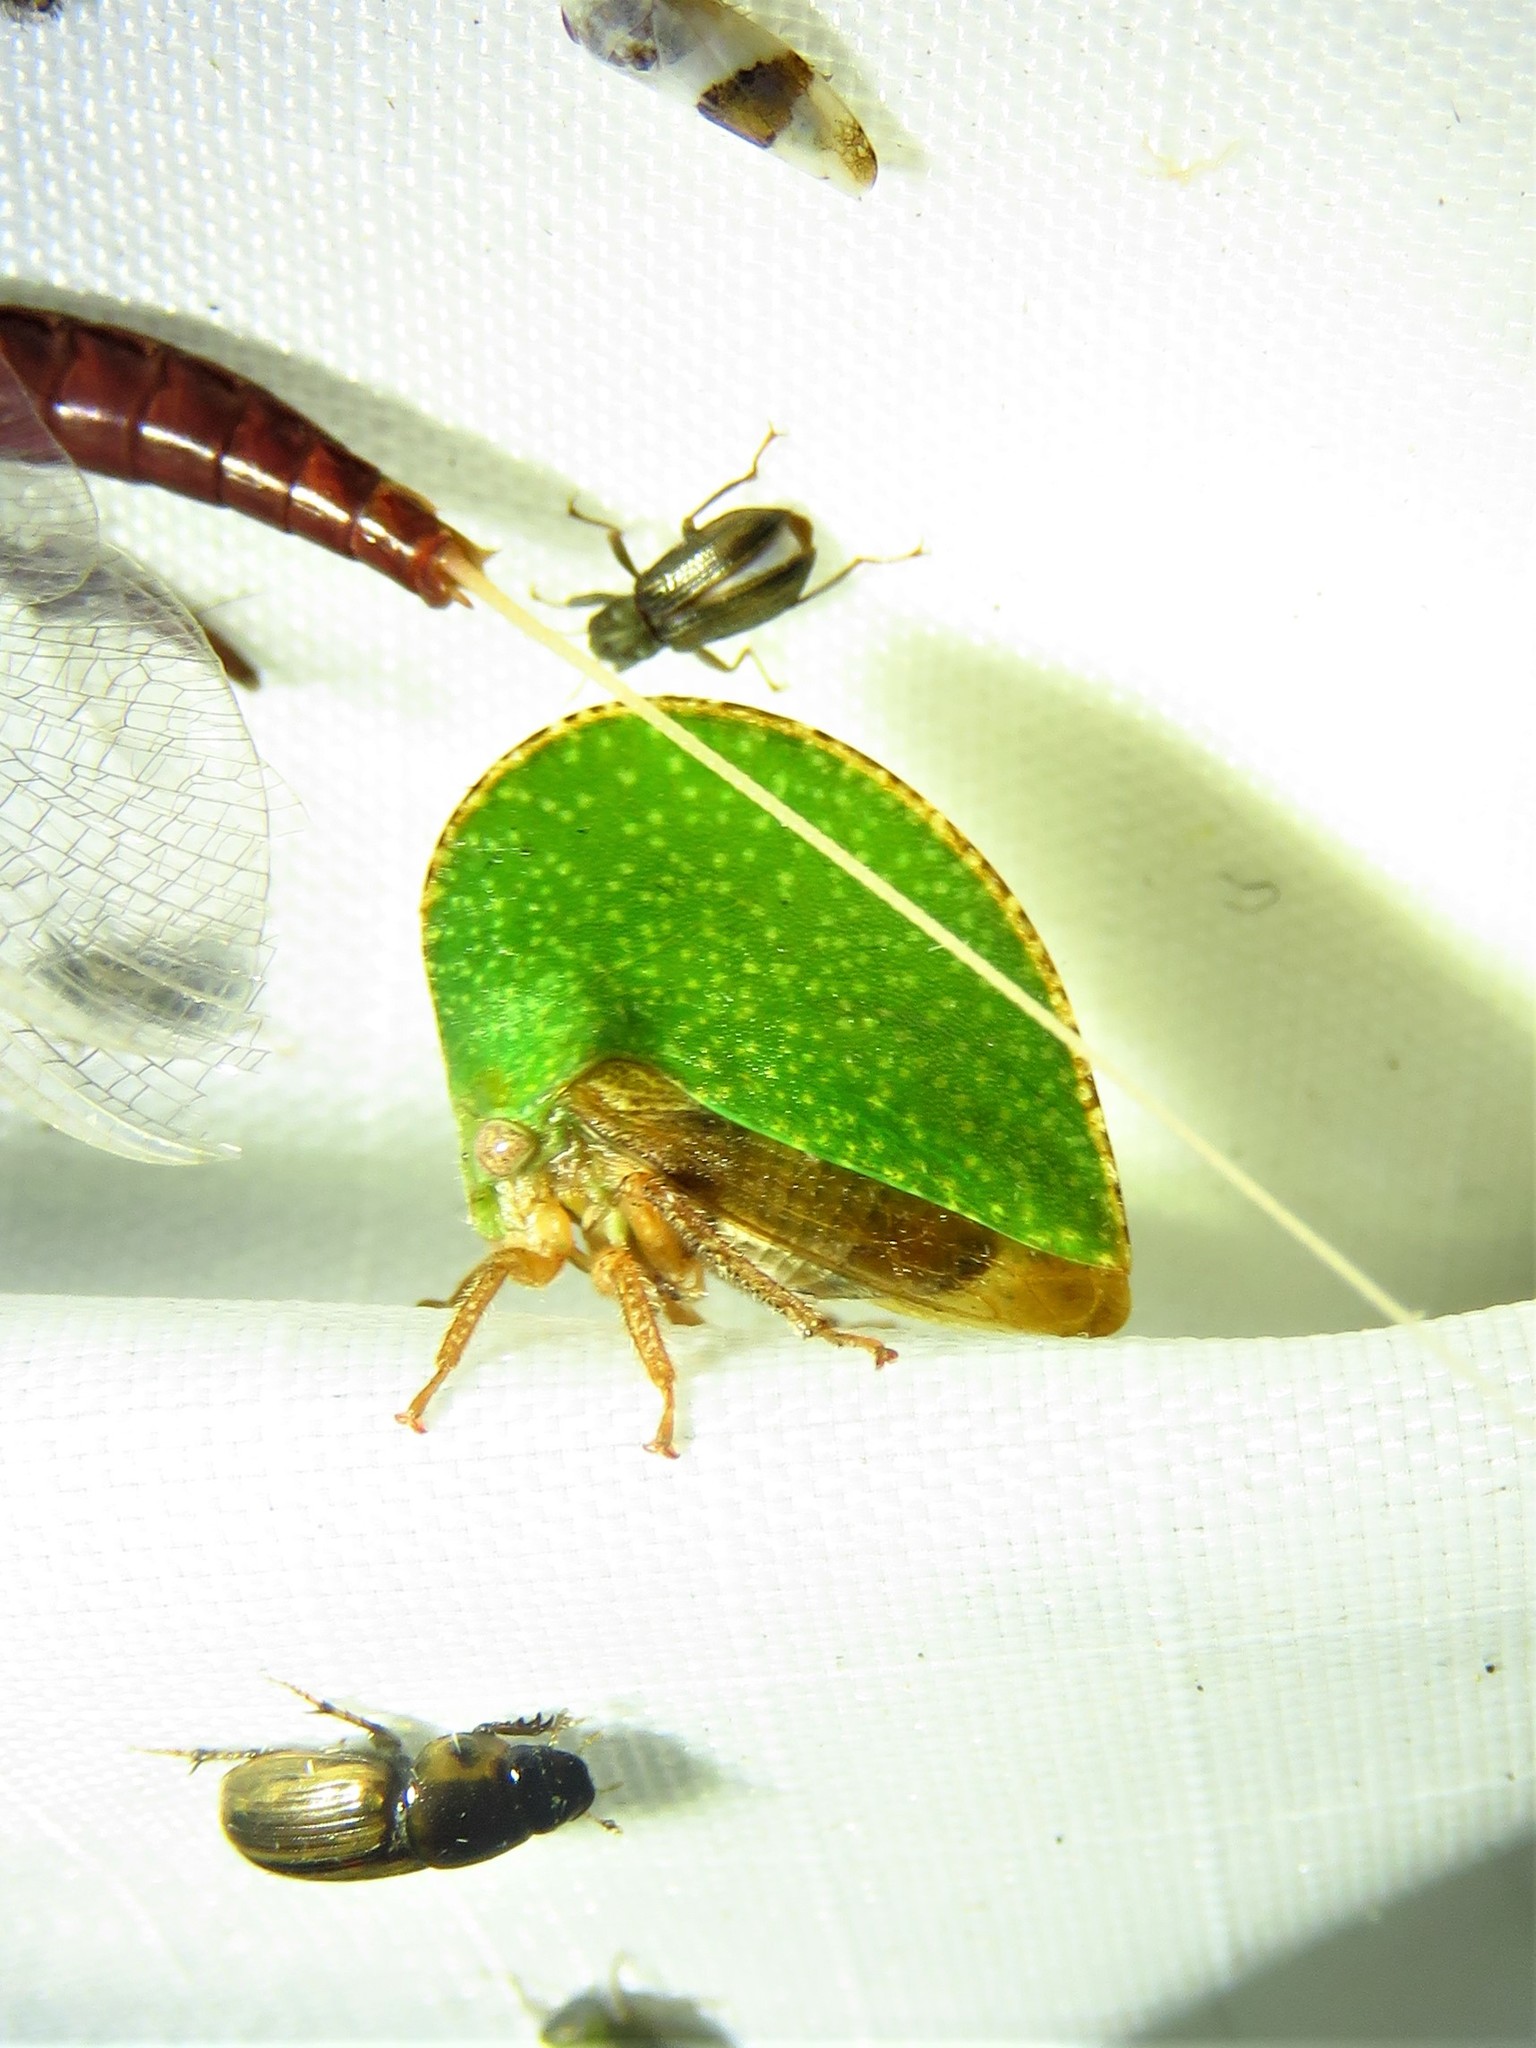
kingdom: Animalia
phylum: Arthropoda
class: Insecta
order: Hemiptera
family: Membracidae
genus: Archasia
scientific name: Archasia auriculata
